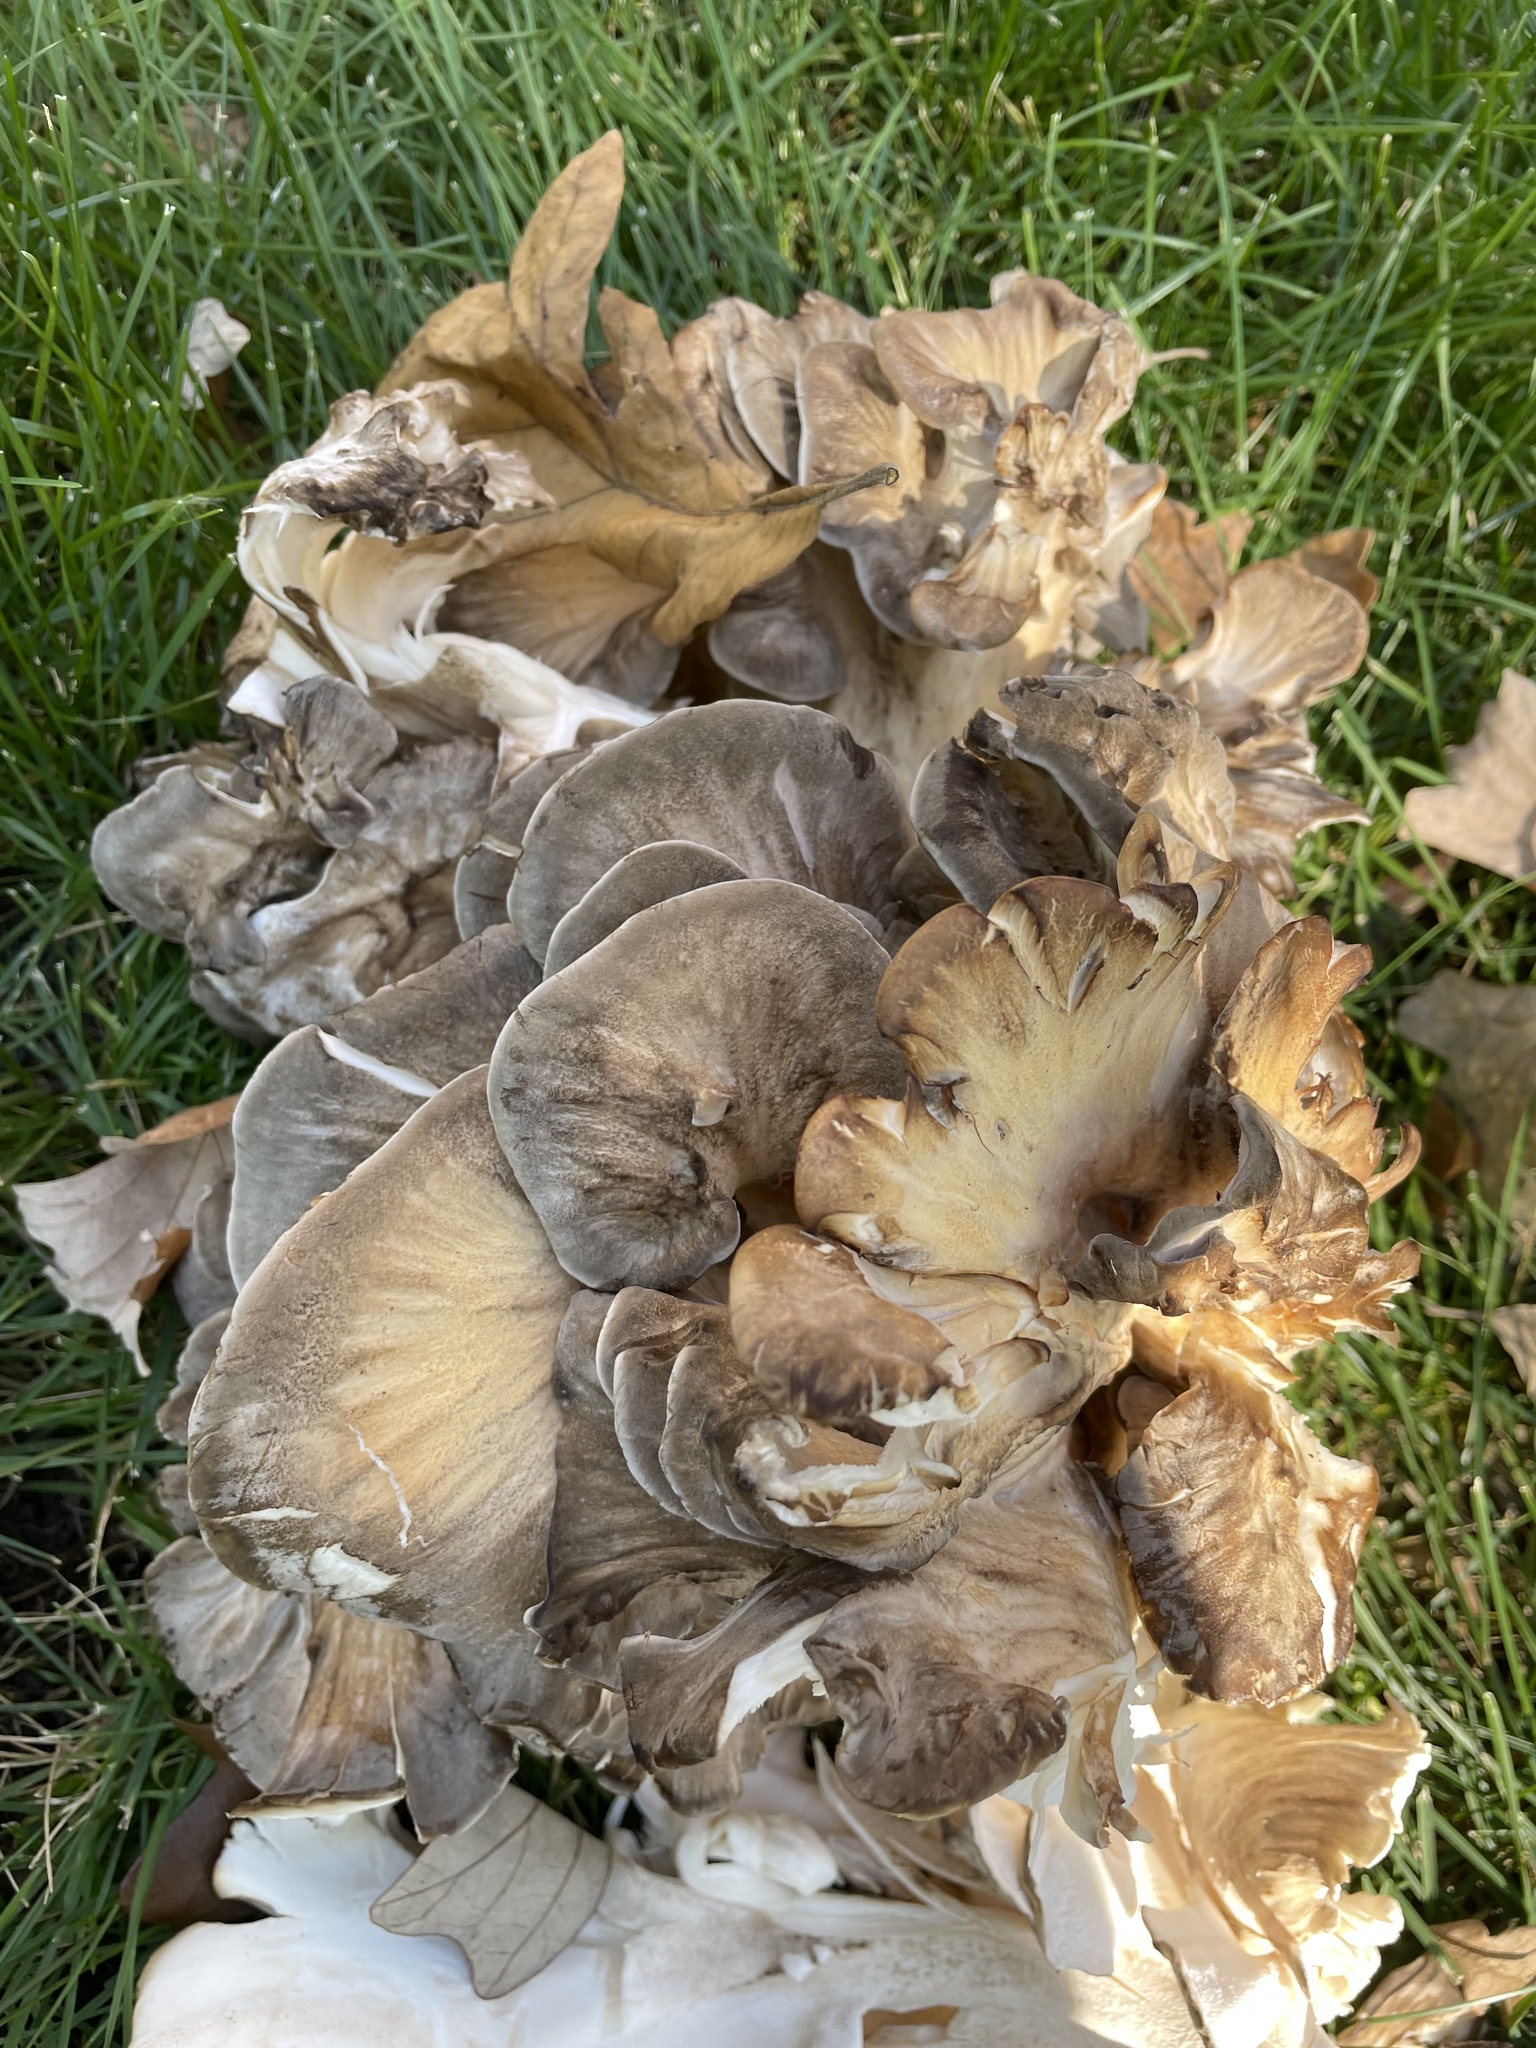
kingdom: Fungi
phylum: Basidiomycota
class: Agaricomycetes
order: Polyporales
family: Grifolaceae
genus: Grifola
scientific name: Grifola frondosa
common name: Hen of the woods
